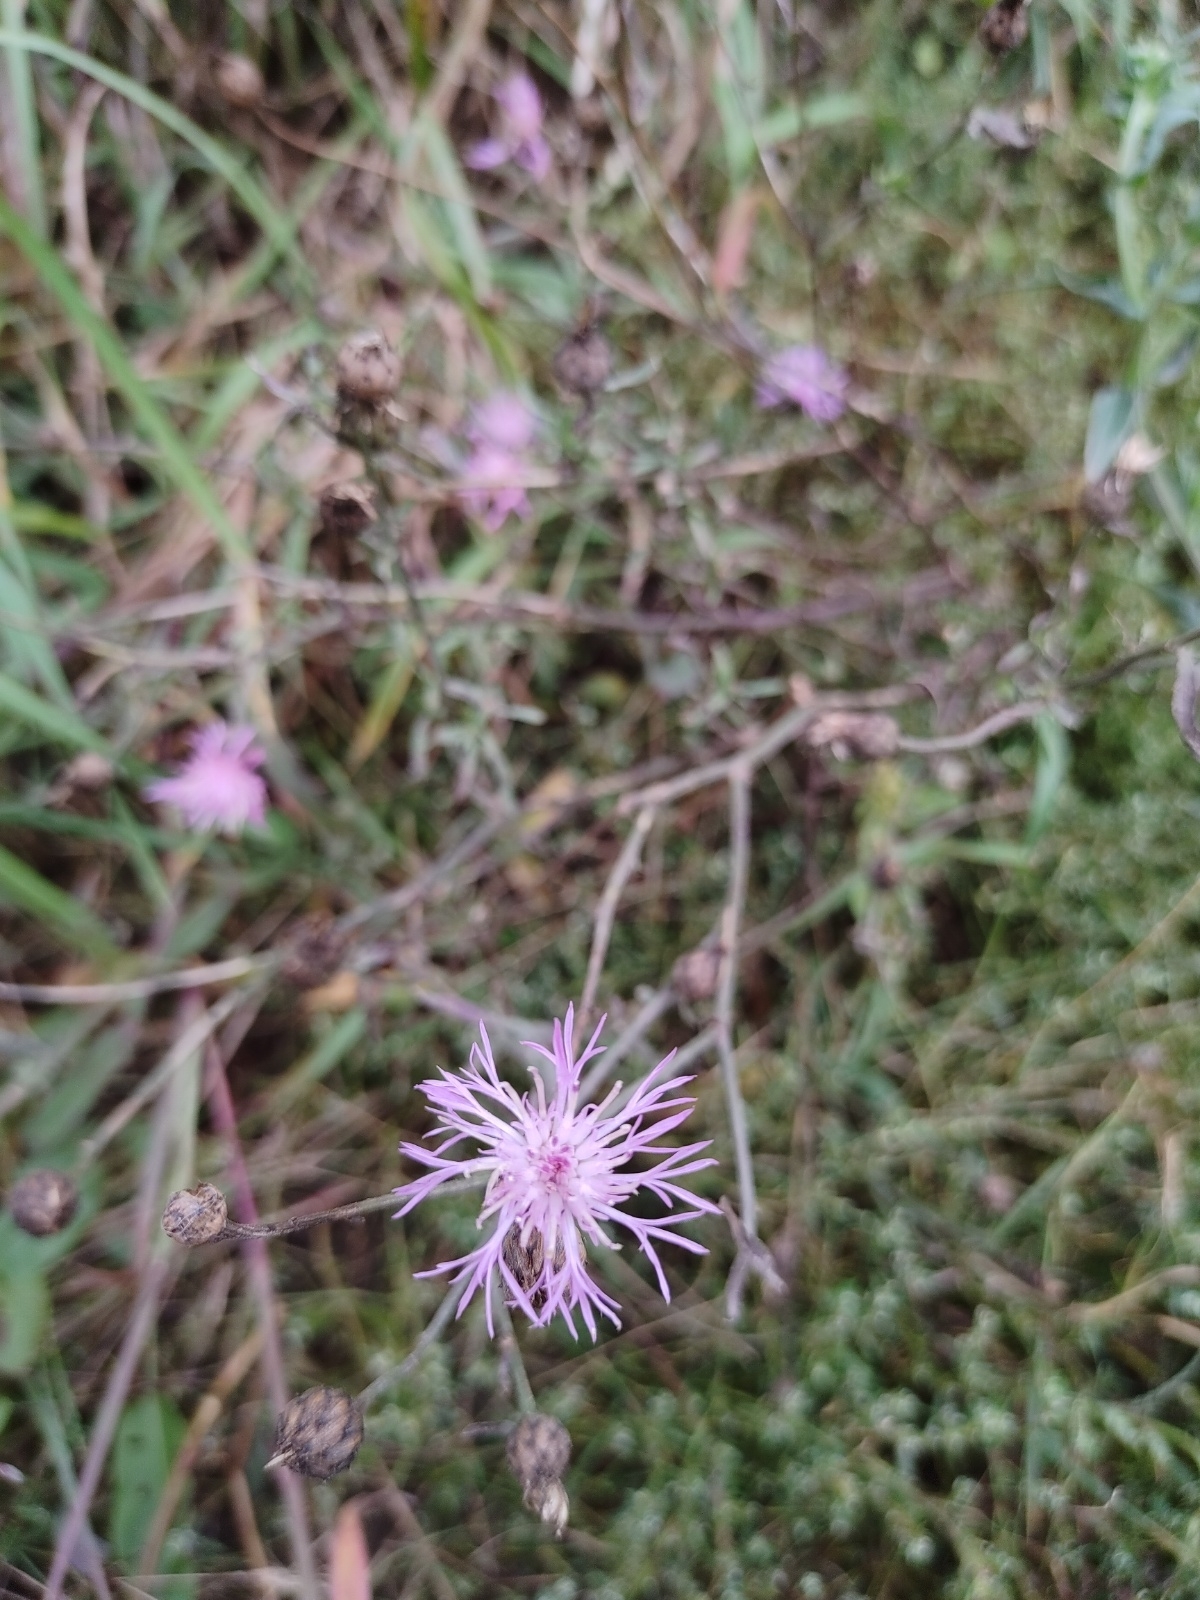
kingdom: Plantae
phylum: Tracheophyta
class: Magnoliopsida
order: Asterales
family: Asteraceae
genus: Centaurea
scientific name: Centaurea stoebe
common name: Spotted knapweed
